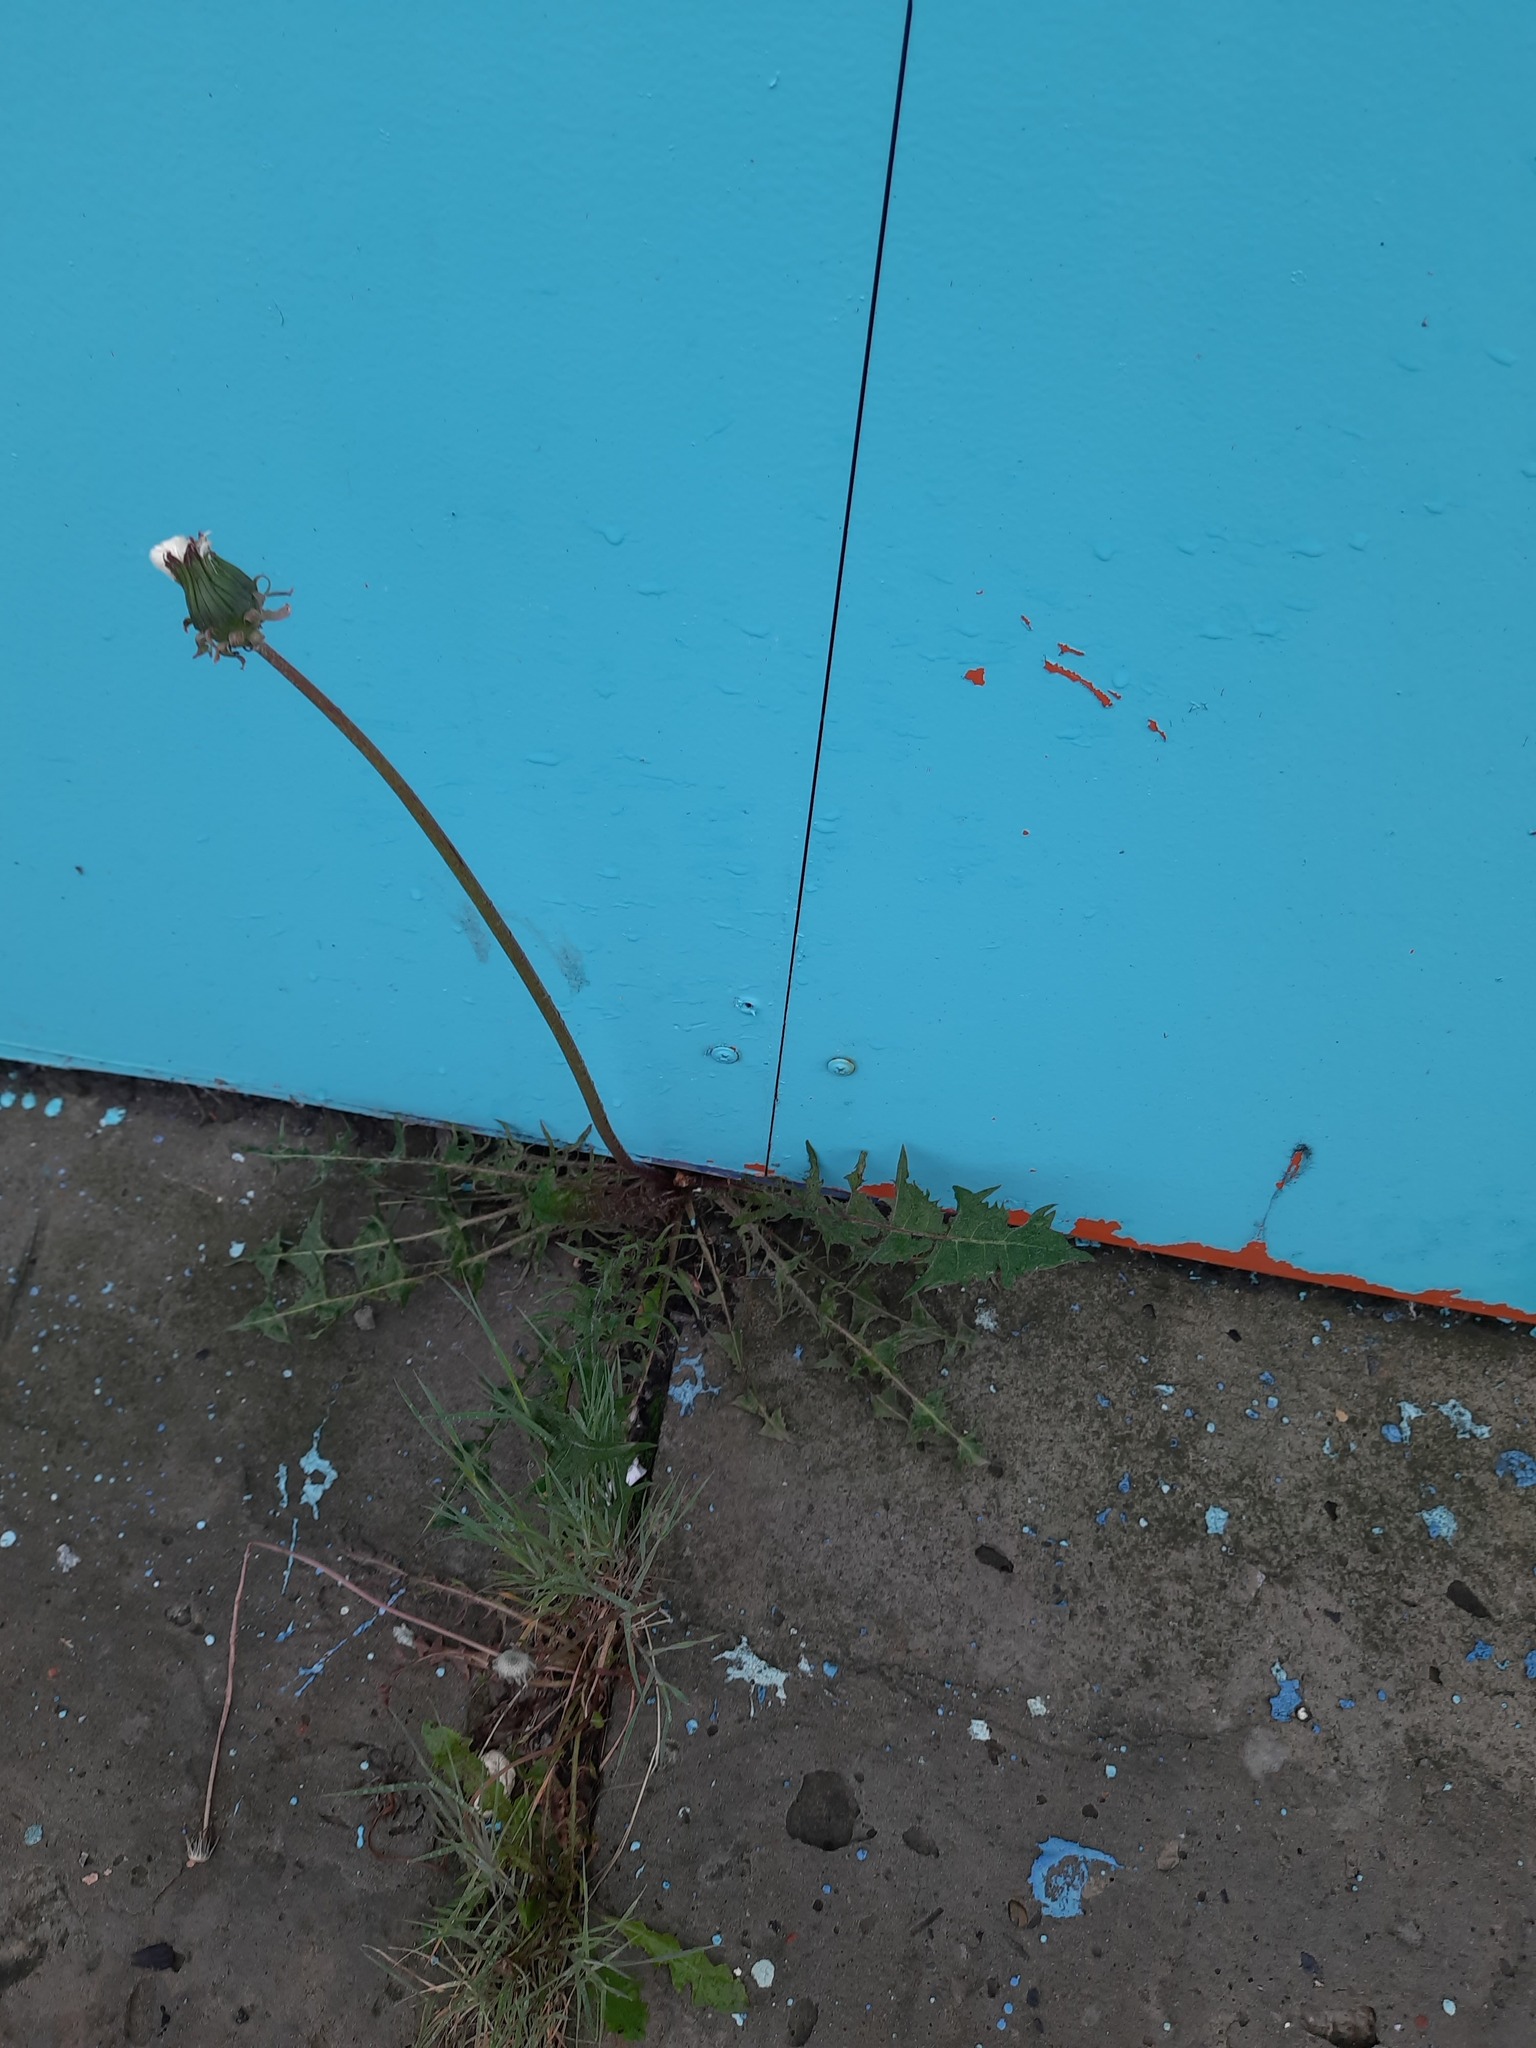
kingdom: Plantae
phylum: Tracheophyta
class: Magnoliopsida
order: Asterales
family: Asteraceae
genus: Taraxacum
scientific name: Taraxacum scariosum
